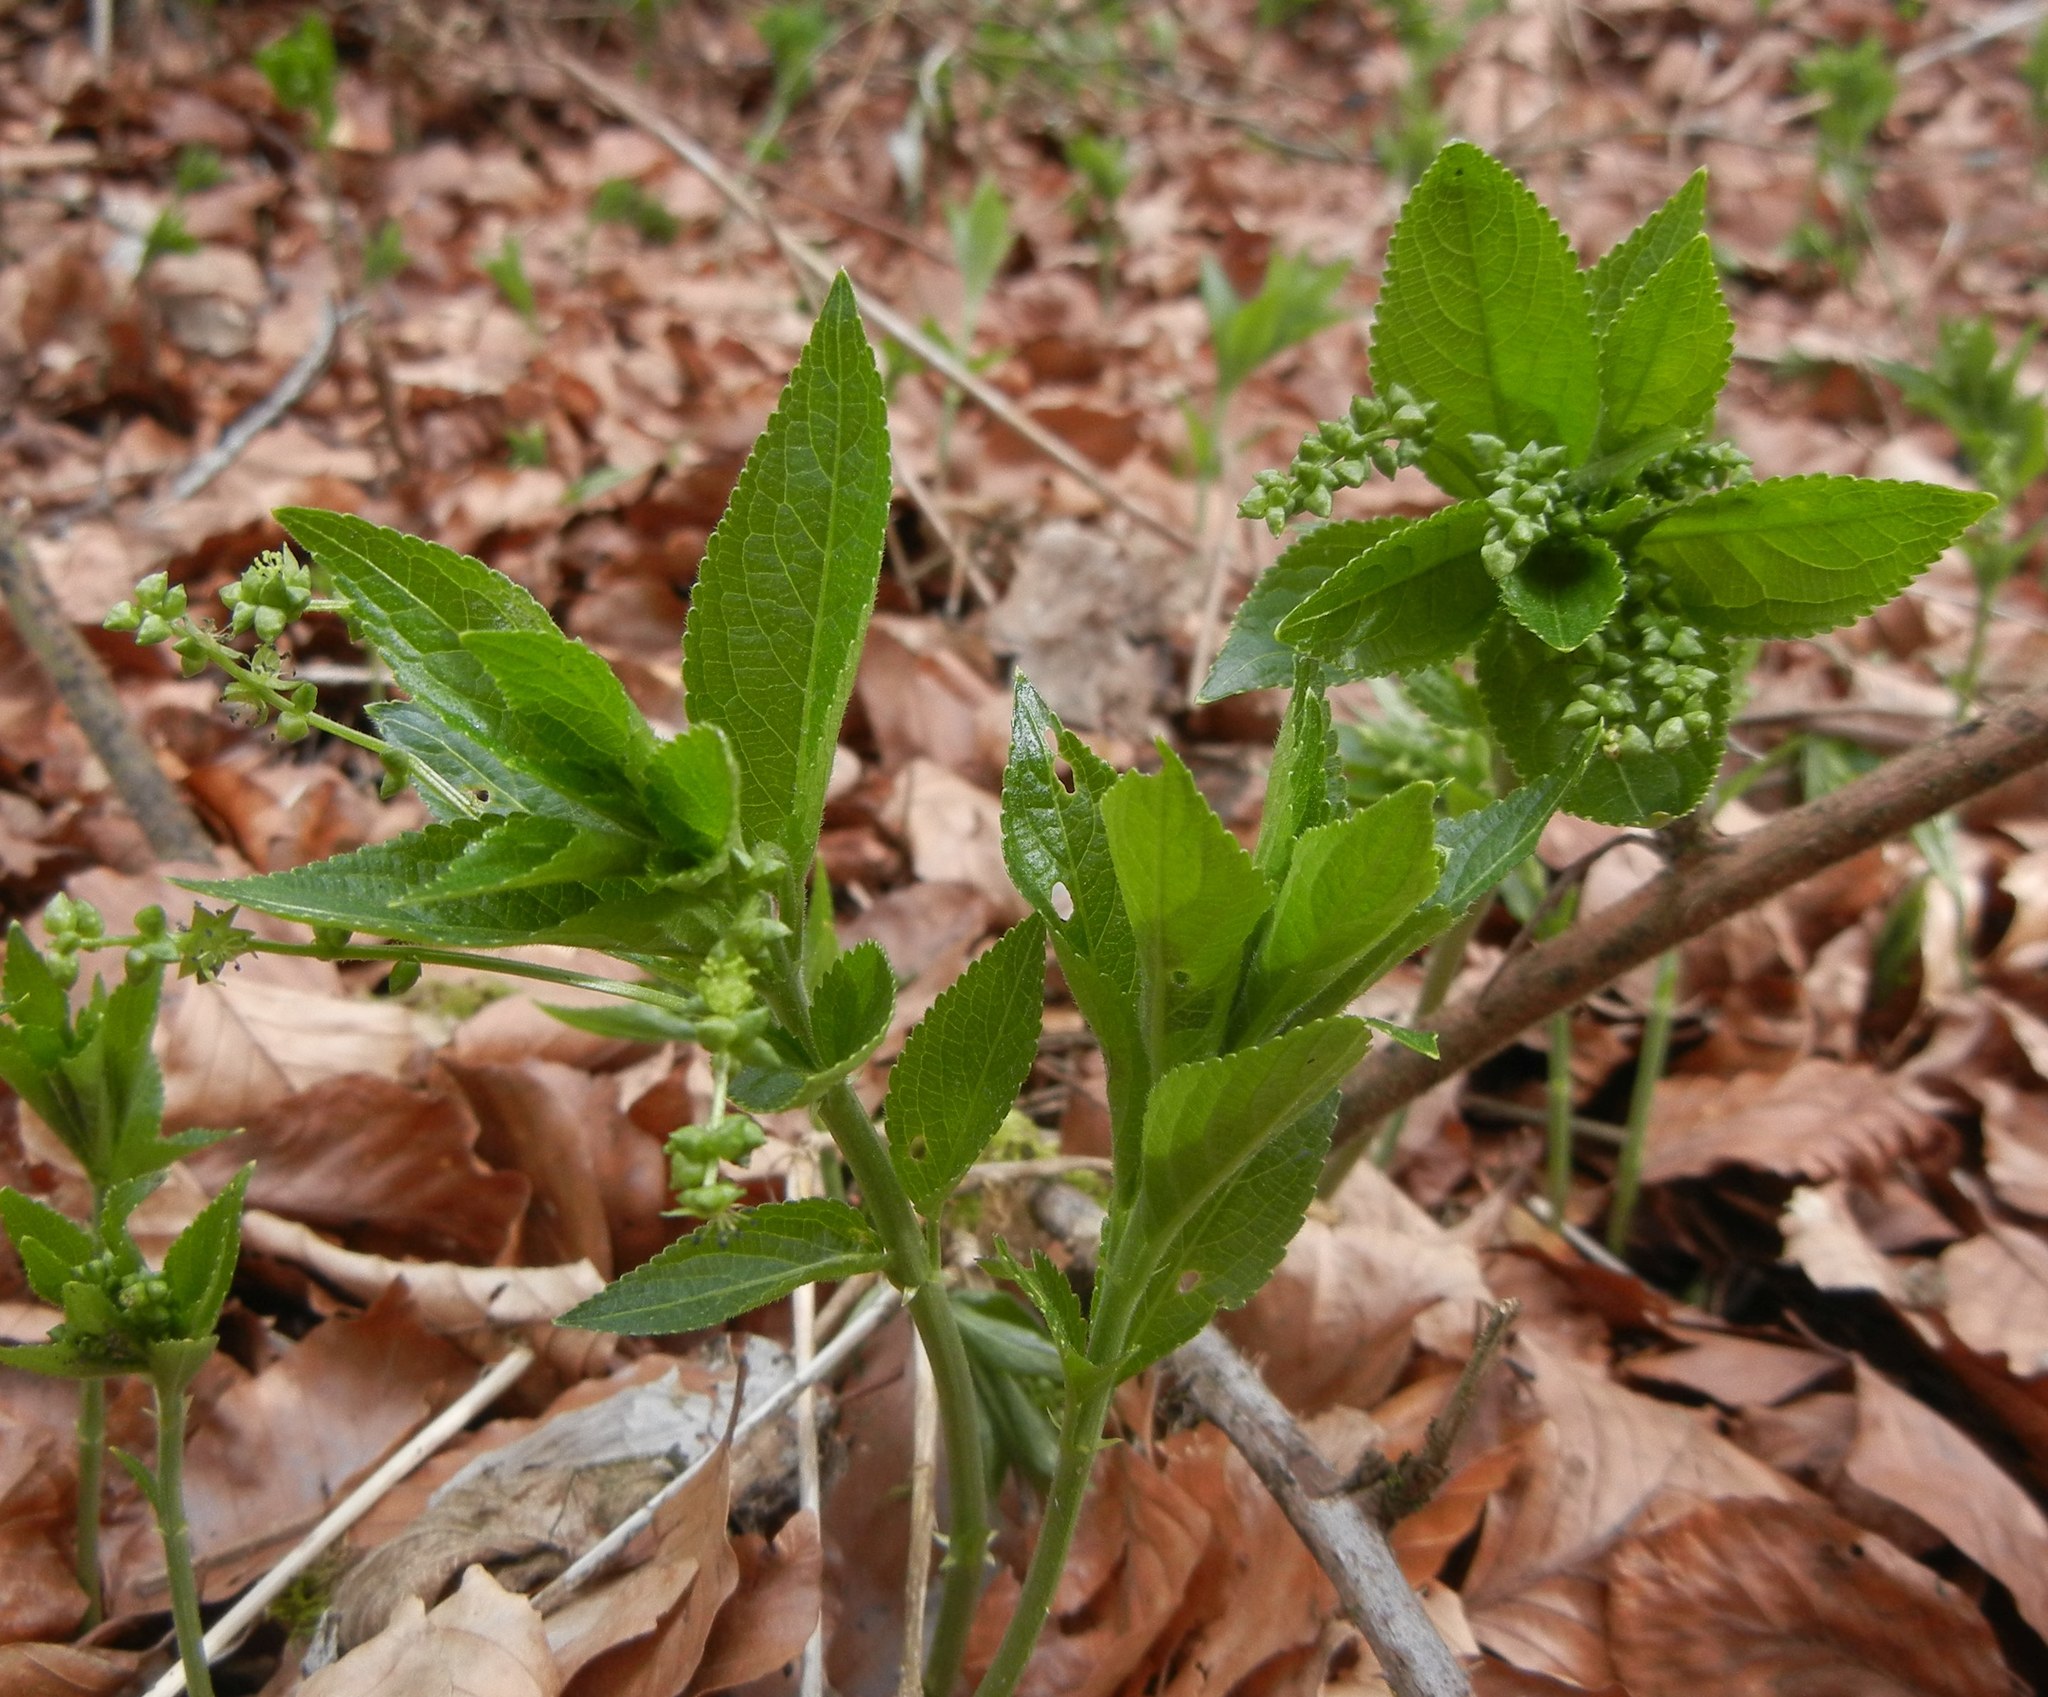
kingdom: Plantae
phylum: Tracheophyta
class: Magnoliopsida
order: Malpighiales
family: Euphorbiaceae
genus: Mercurialis
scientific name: Mercurialis perennis
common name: Dog mercury
